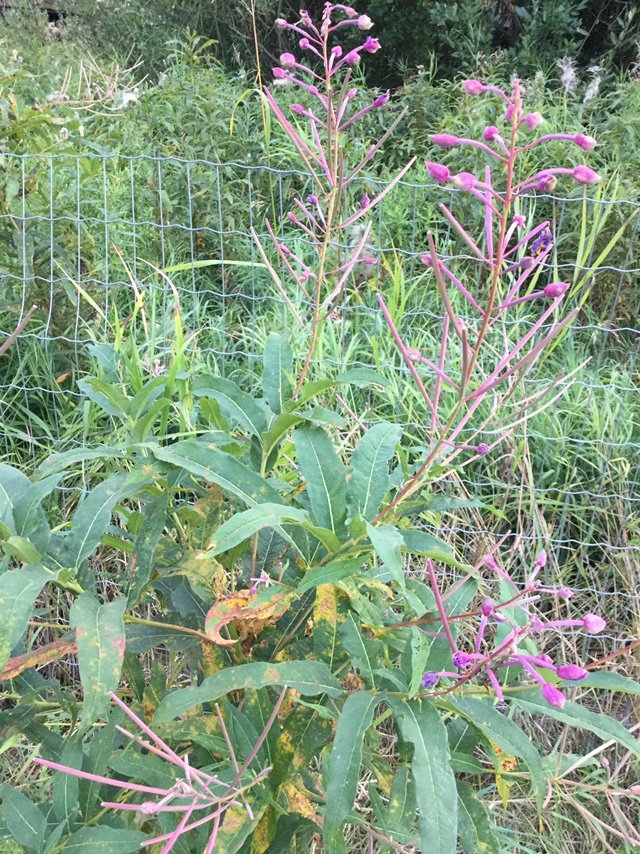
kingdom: Plantae
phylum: Tracheophyta
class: Magnoliopsida
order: Myrtales
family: Onagraceae
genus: Chamaenerion
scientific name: Chamaenerion angustifolium
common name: Fireweed
